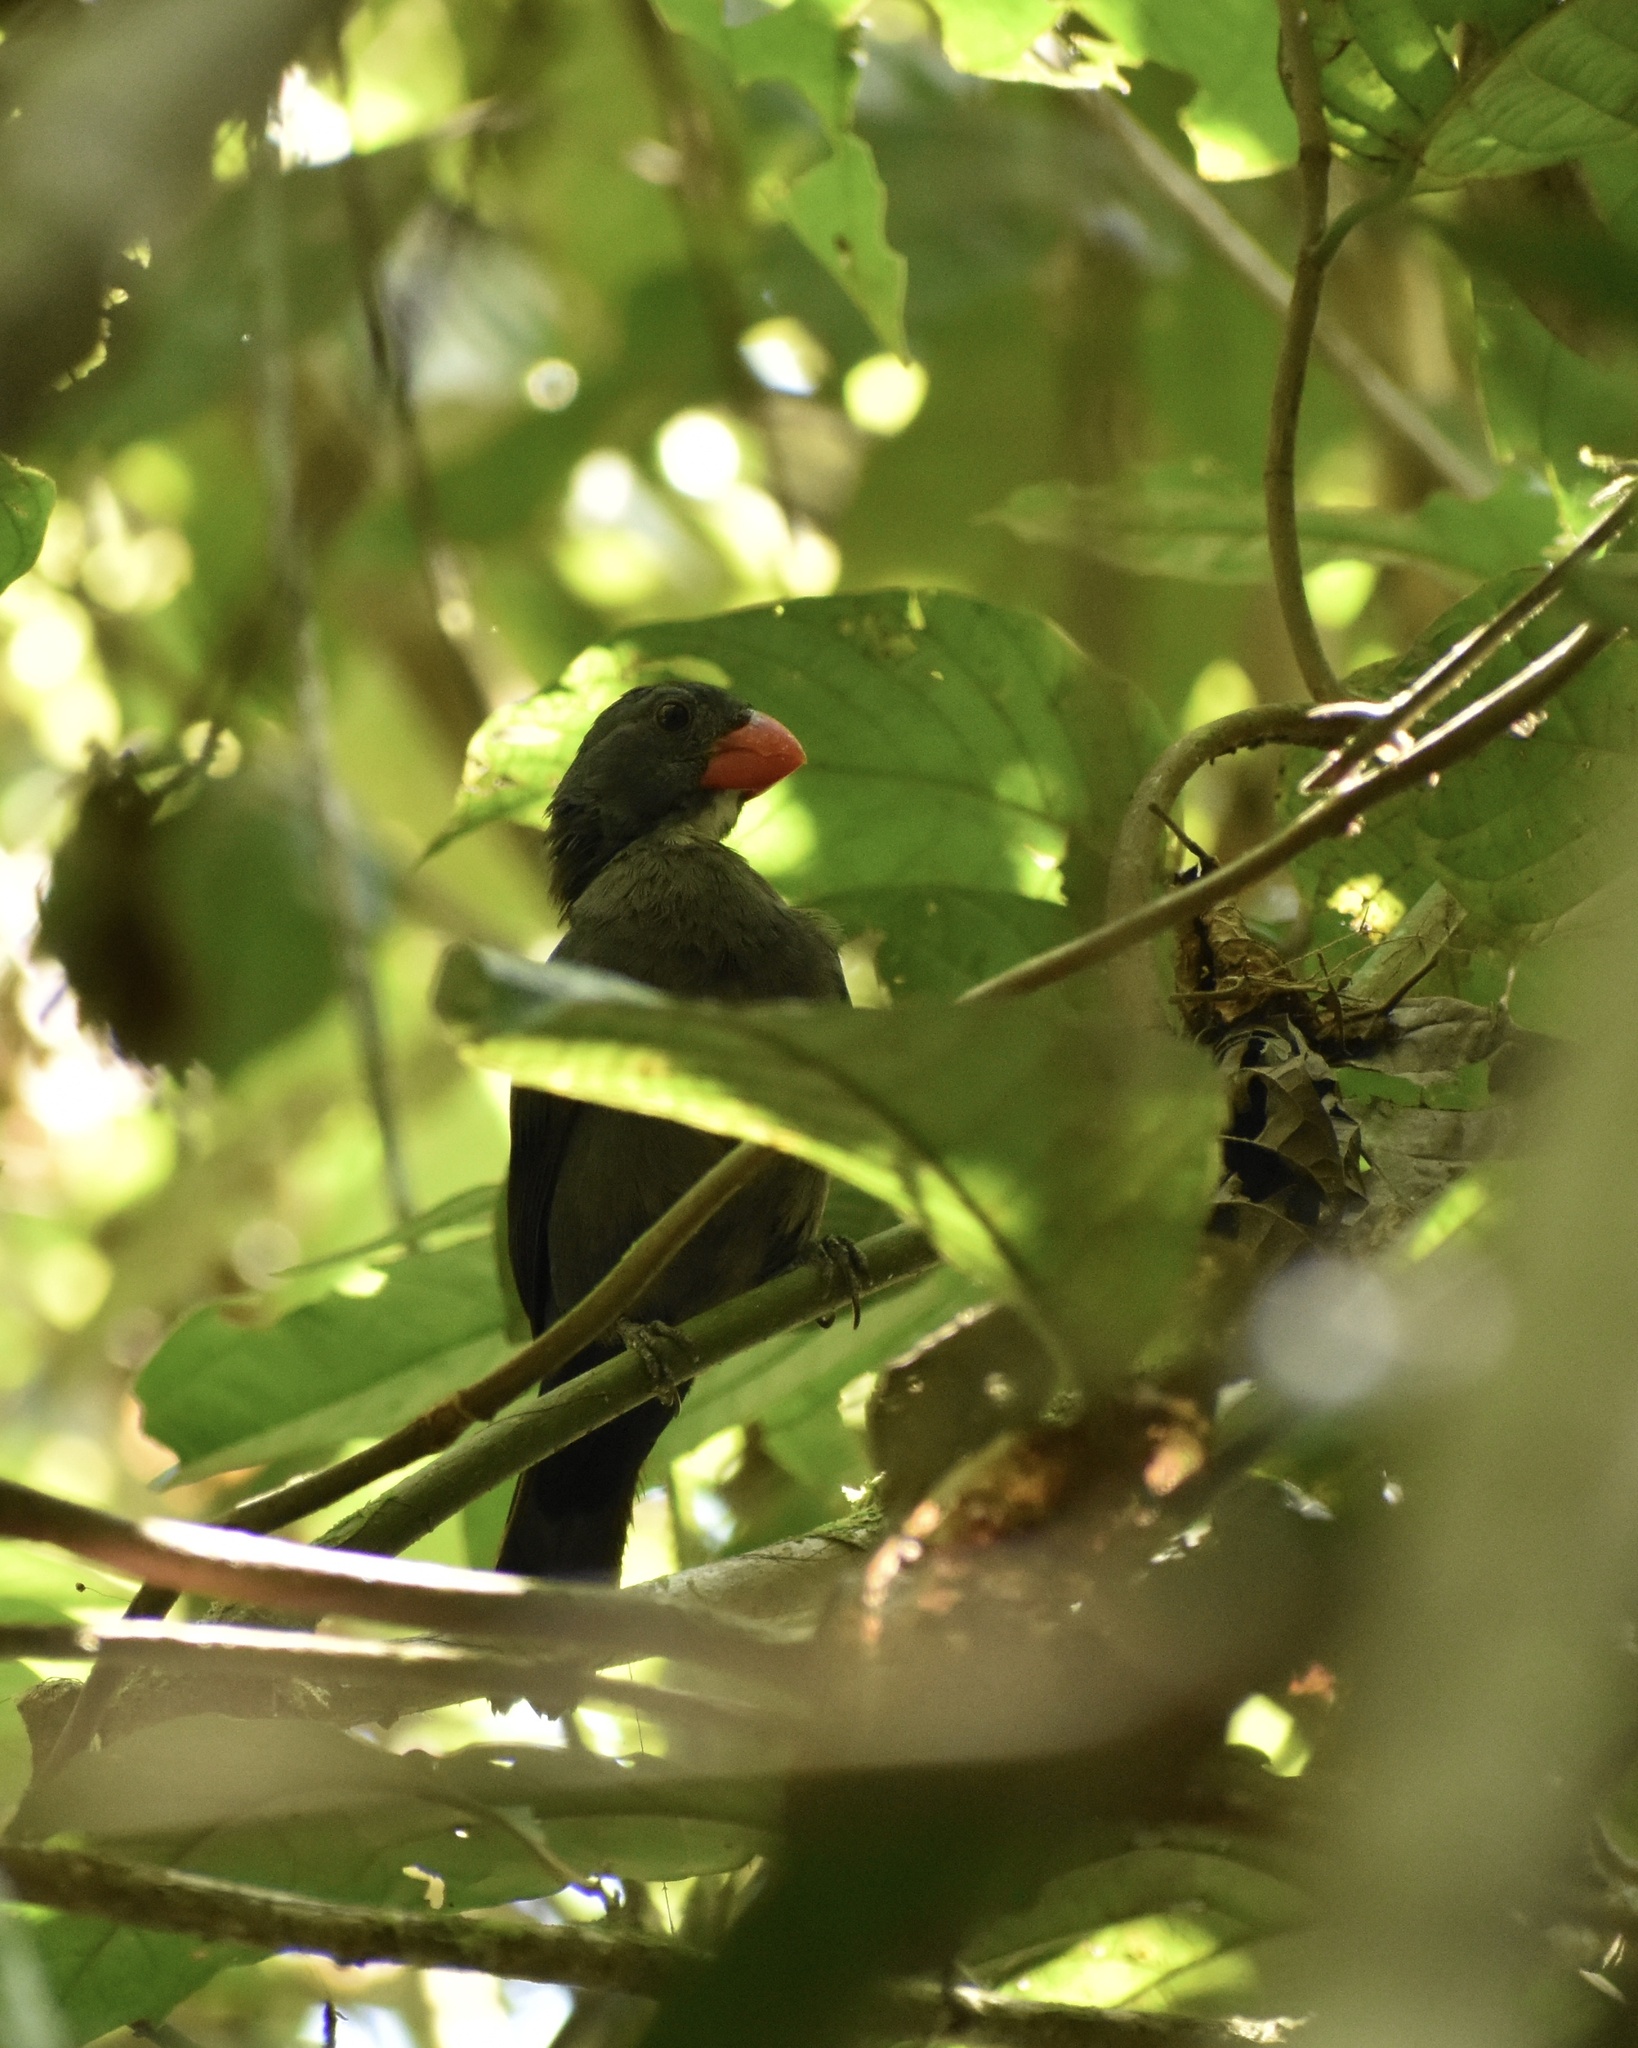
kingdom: Animalia
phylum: Chordata
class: Aves
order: Passeriformes
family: Thraupidae
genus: Saltator
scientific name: Saltator grossus
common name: Slate-colored grosbeak
